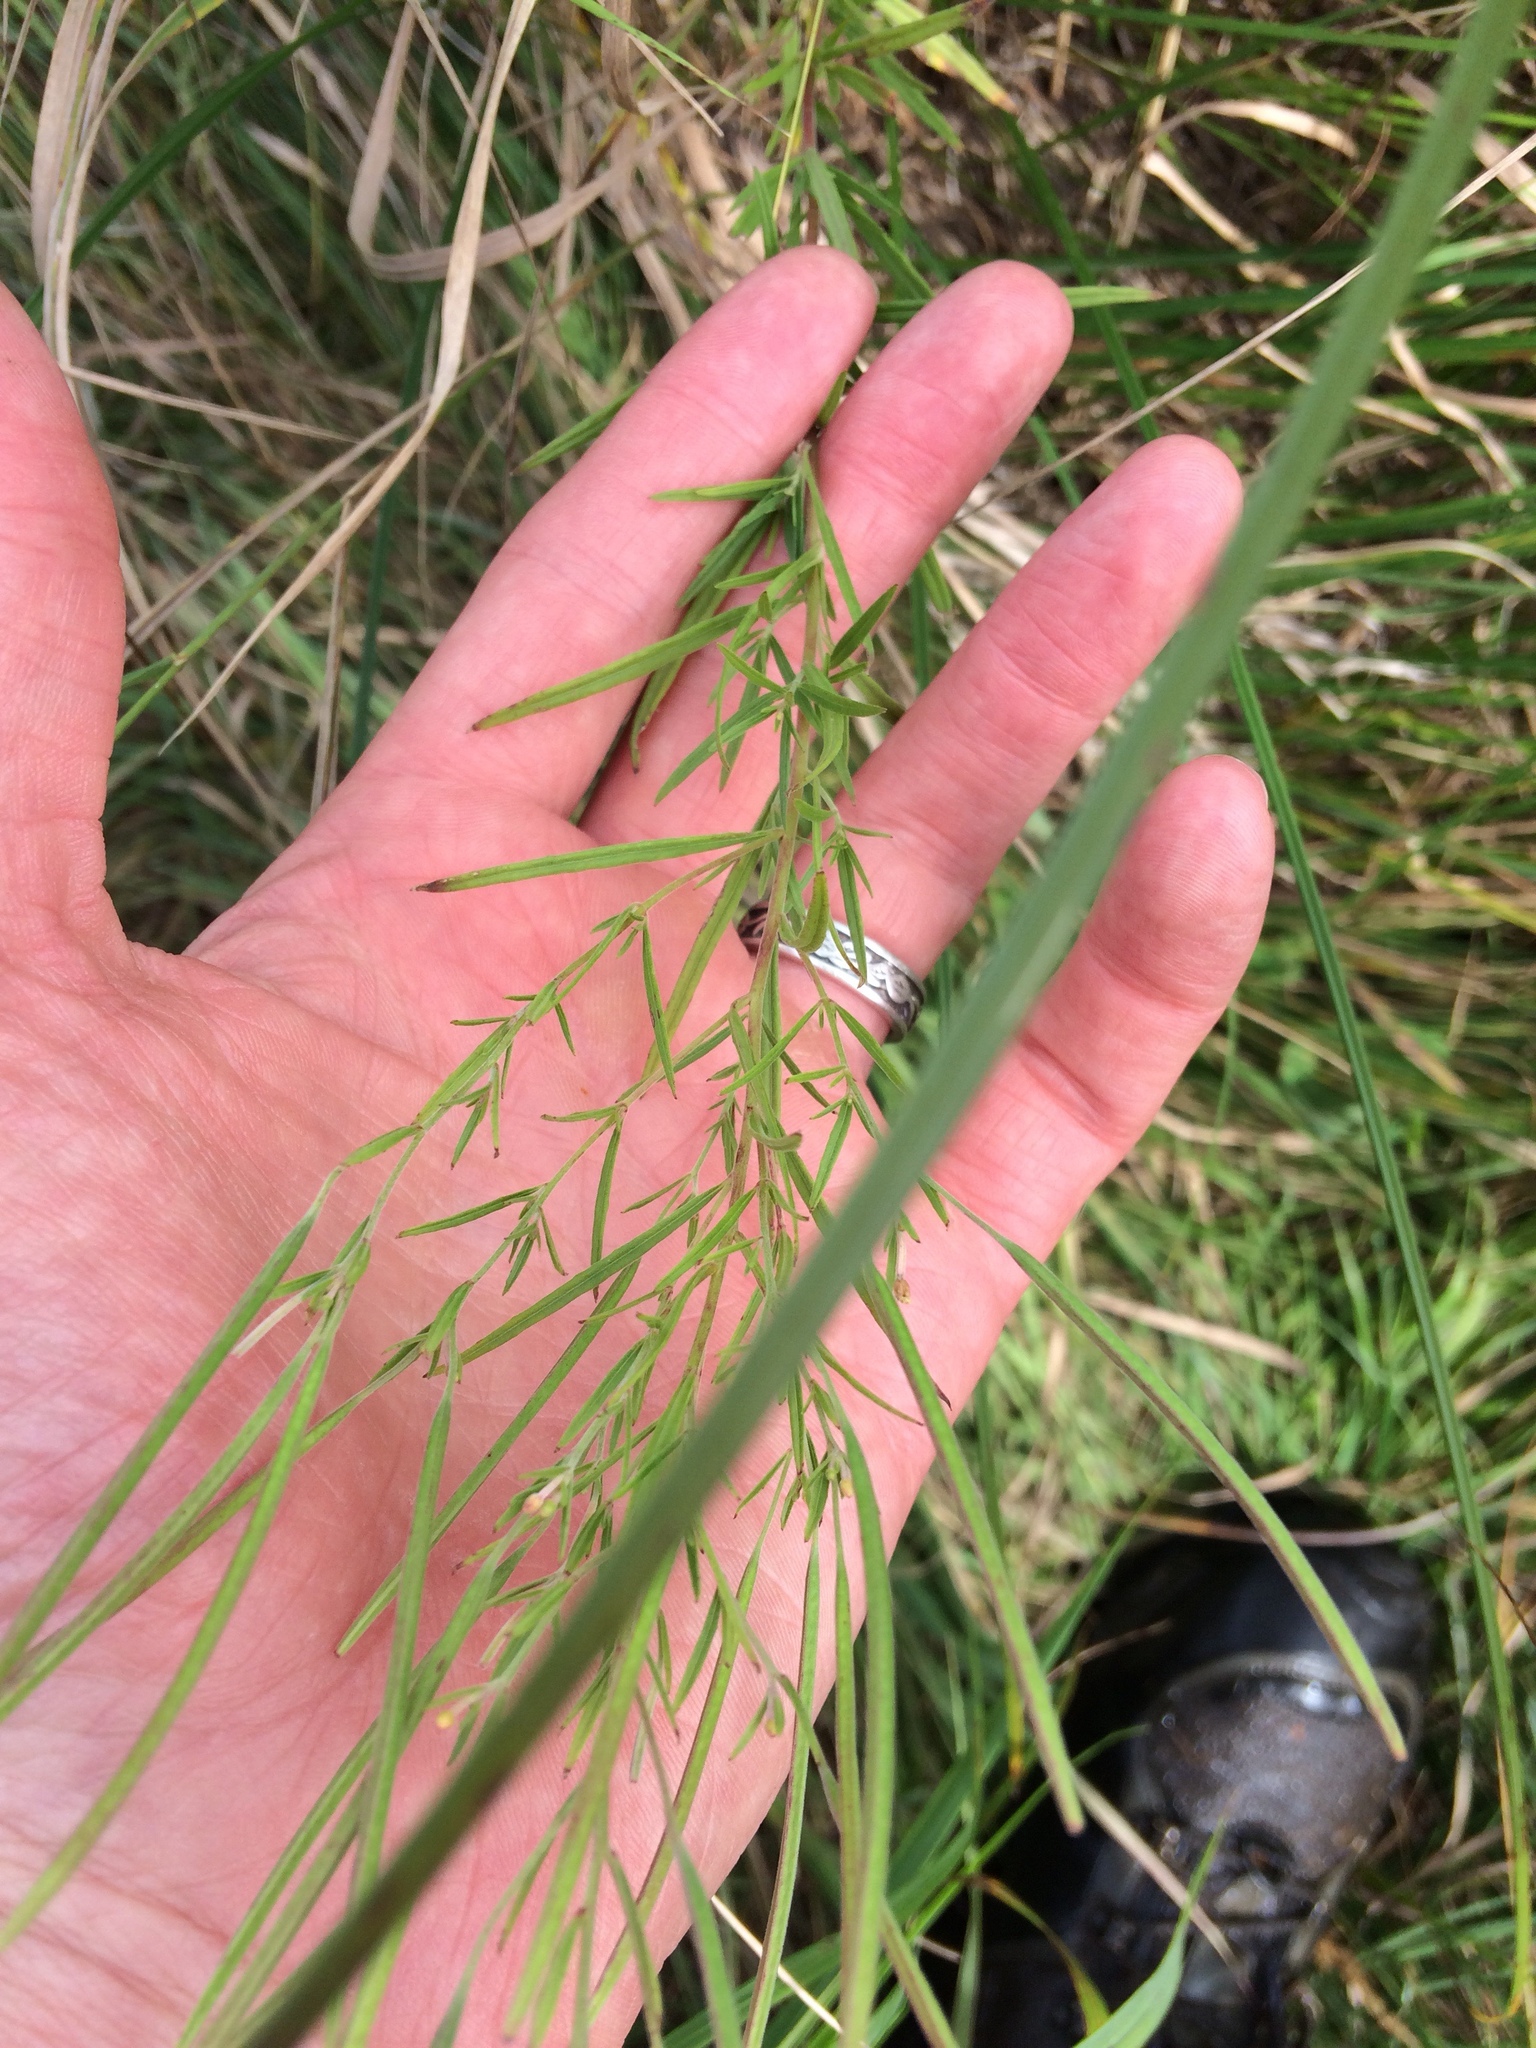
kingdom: Plantae
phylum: Tracheophyta
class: Magnoliopsida
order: Myrtales
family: Onagraceae
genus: Epilobium
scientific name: Epilobium leptophyllum
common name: Bog willowherb
